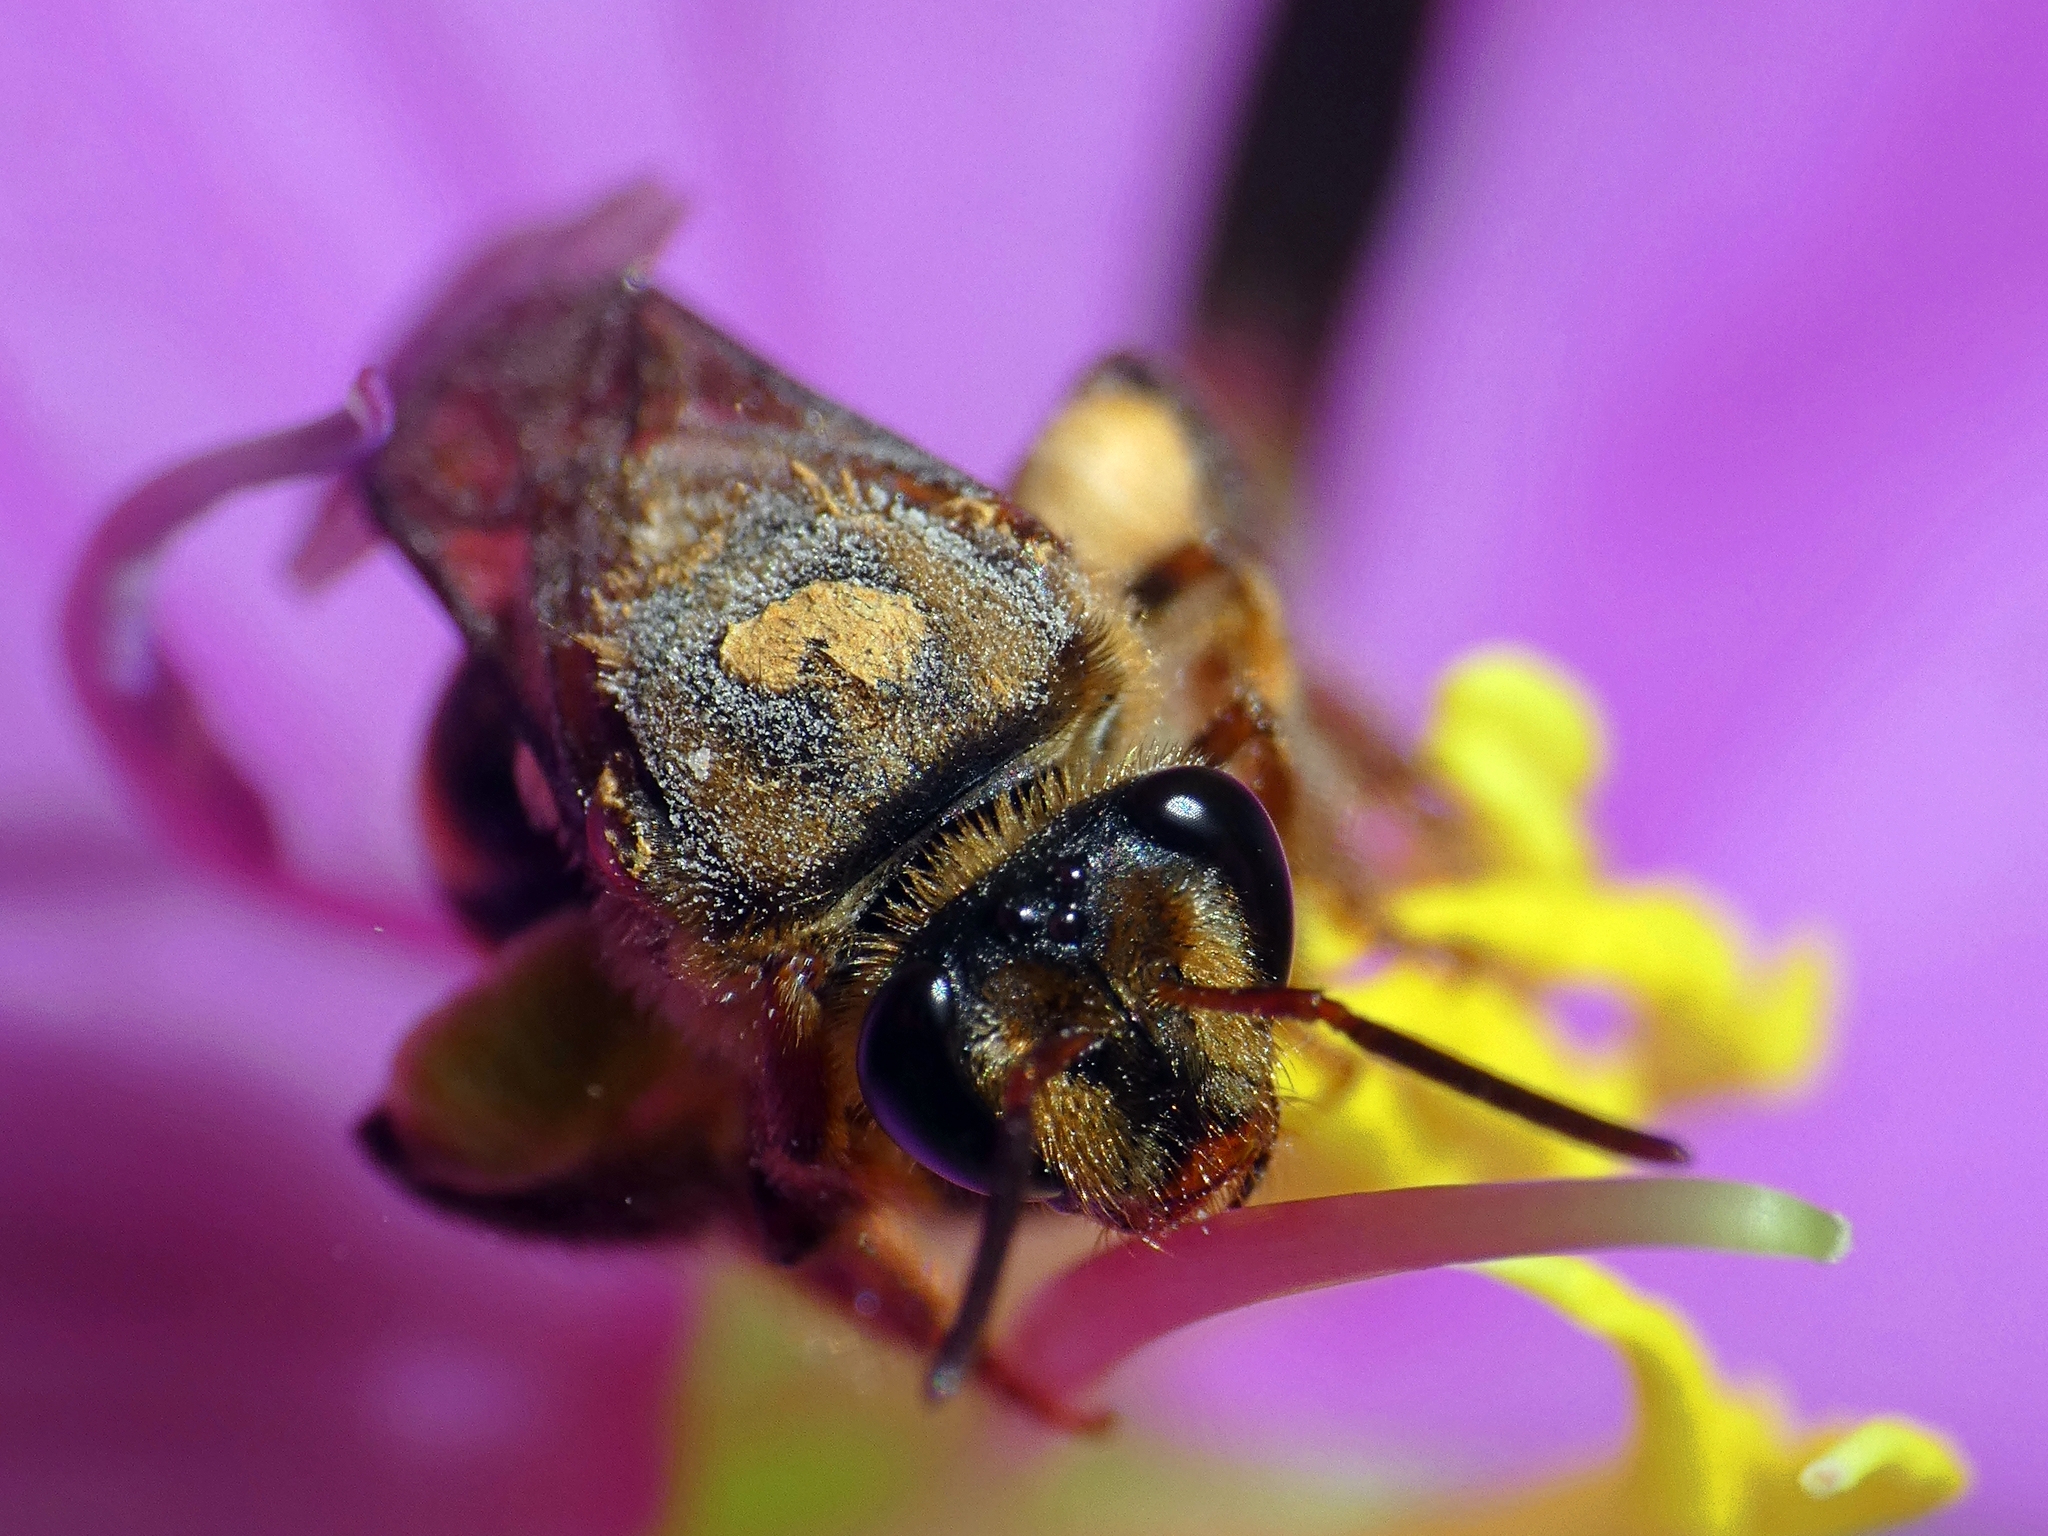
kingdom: Animalia
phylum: Arthropoda
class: Insecta
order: Hymenoptera
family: Halictidae
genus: Mellitidia
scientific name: Mellitidia tomentifera
